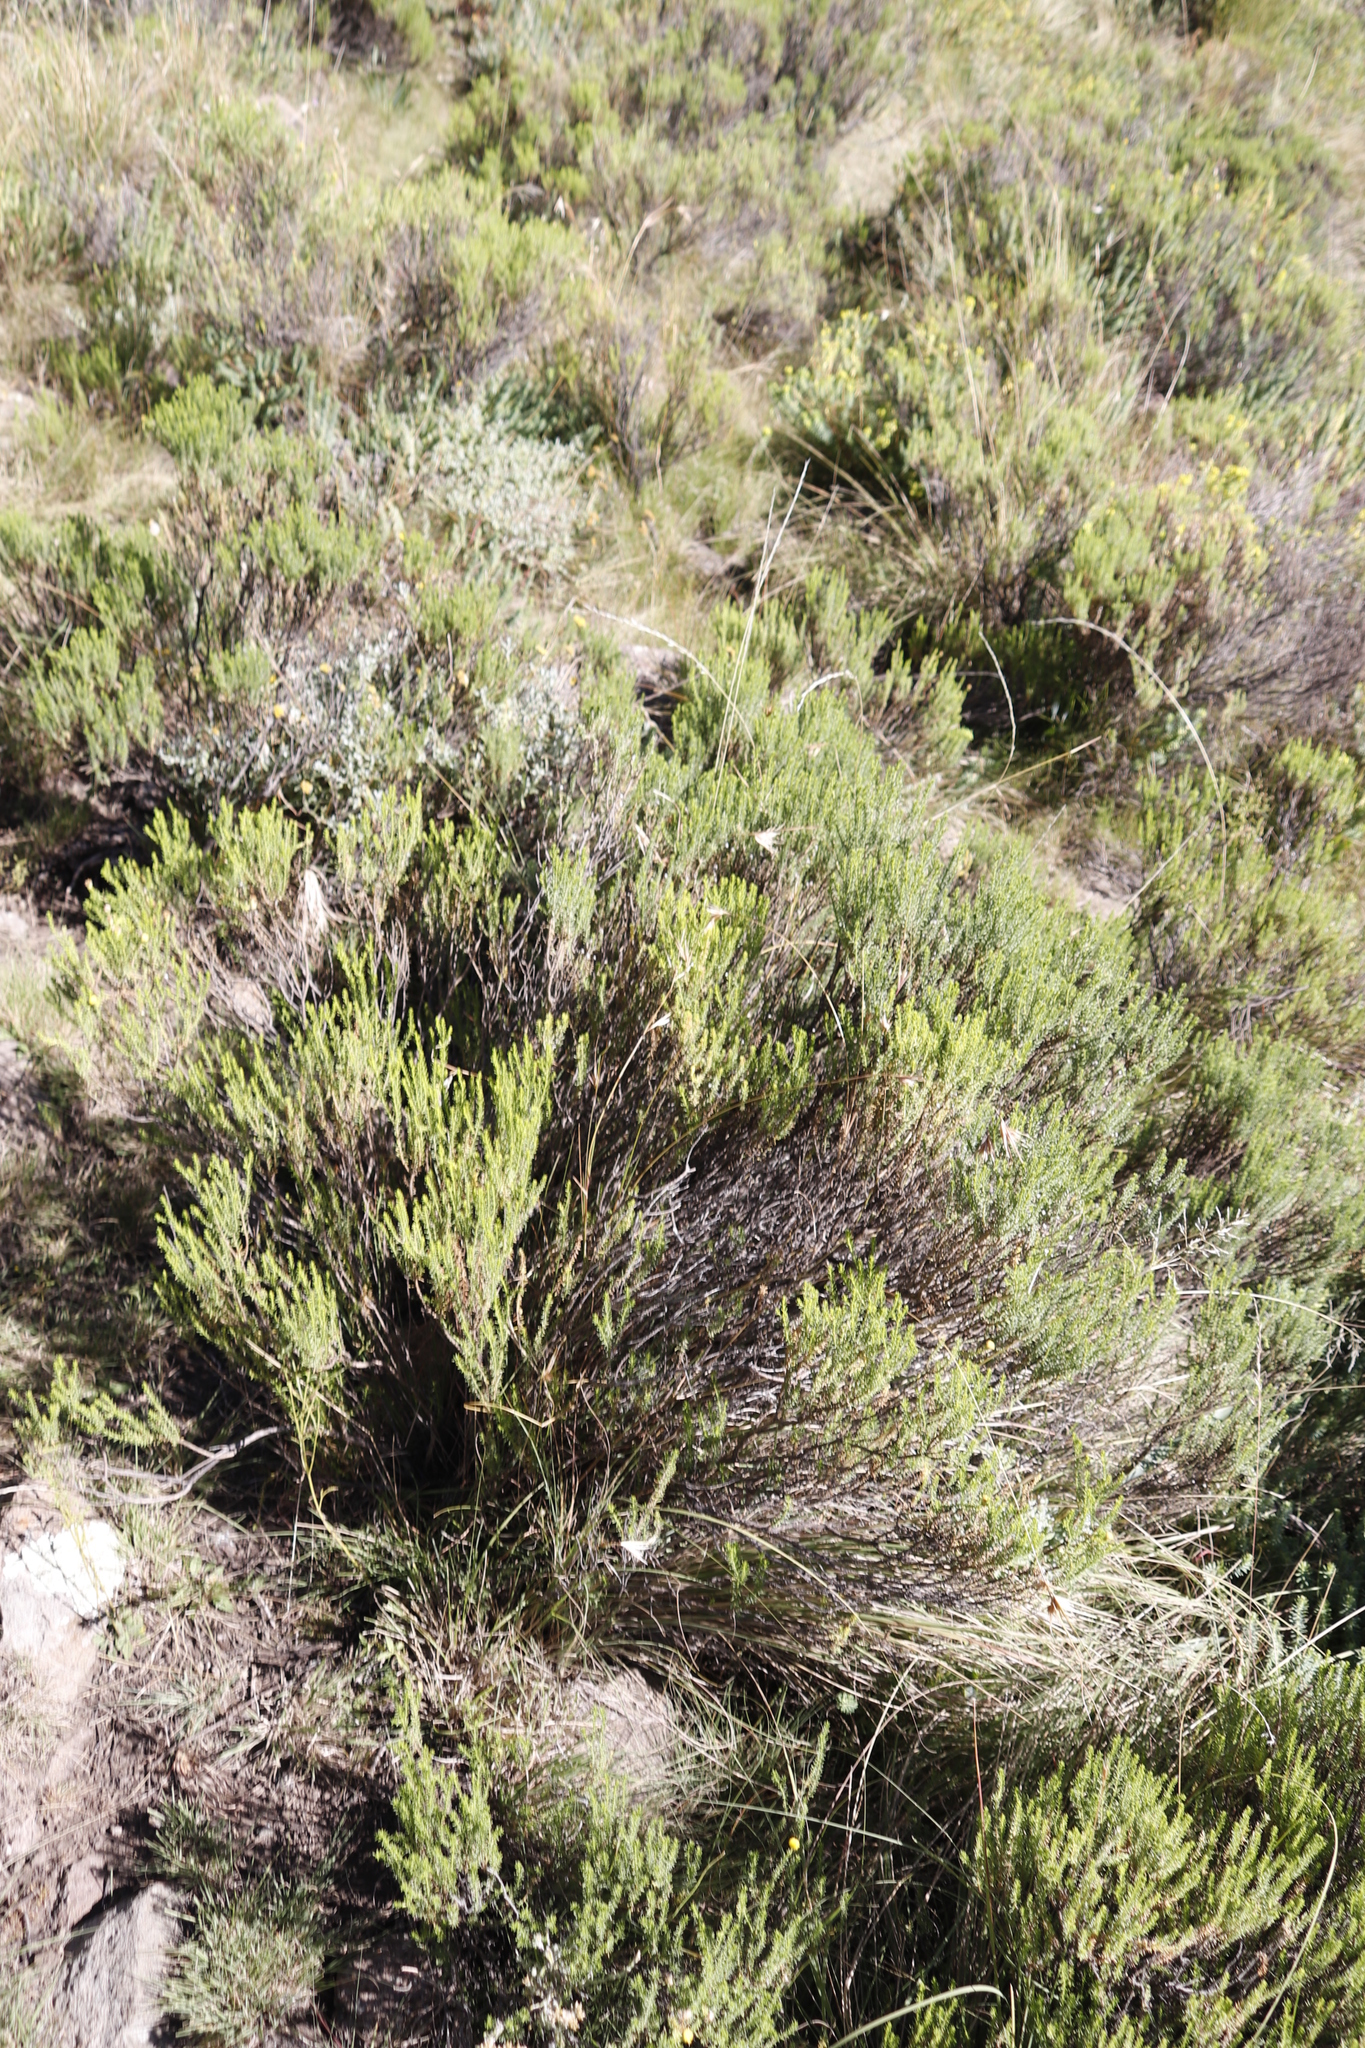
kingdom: Plantae
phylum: Tracheophyta
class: Liliopsida
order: Poales
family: Poaceae
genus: Themeda
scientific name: Themeda triandra
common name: Kangaroo grass
